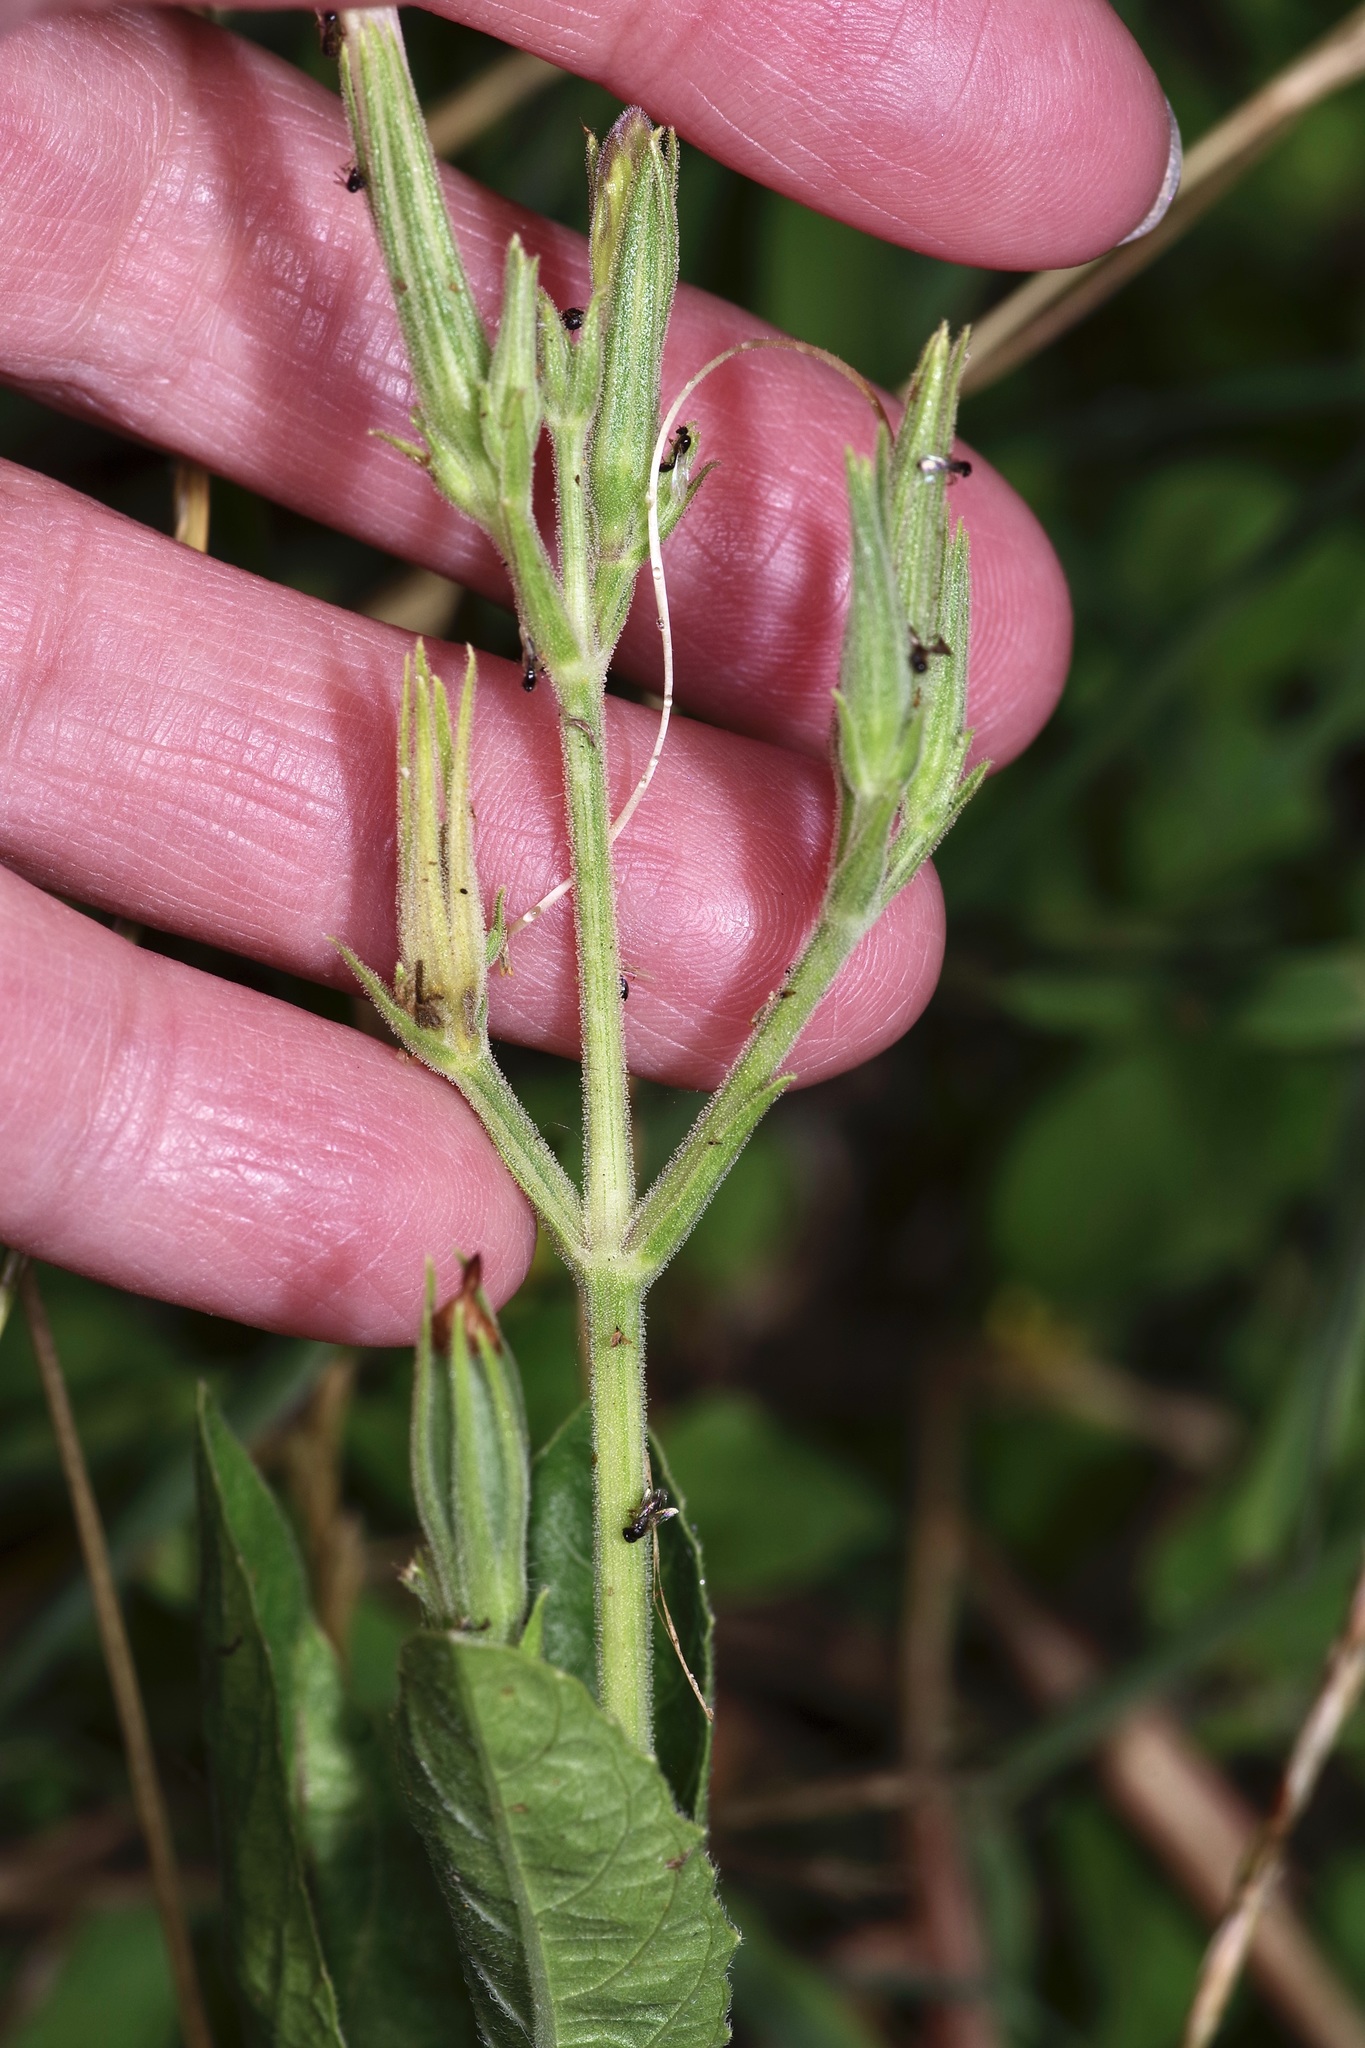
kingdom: Plantae
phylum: Tracheophyta
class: Magnoliopsida
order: Lamiales
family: Acanthaceae
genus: Ruellia
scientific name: Ruellia metziae
